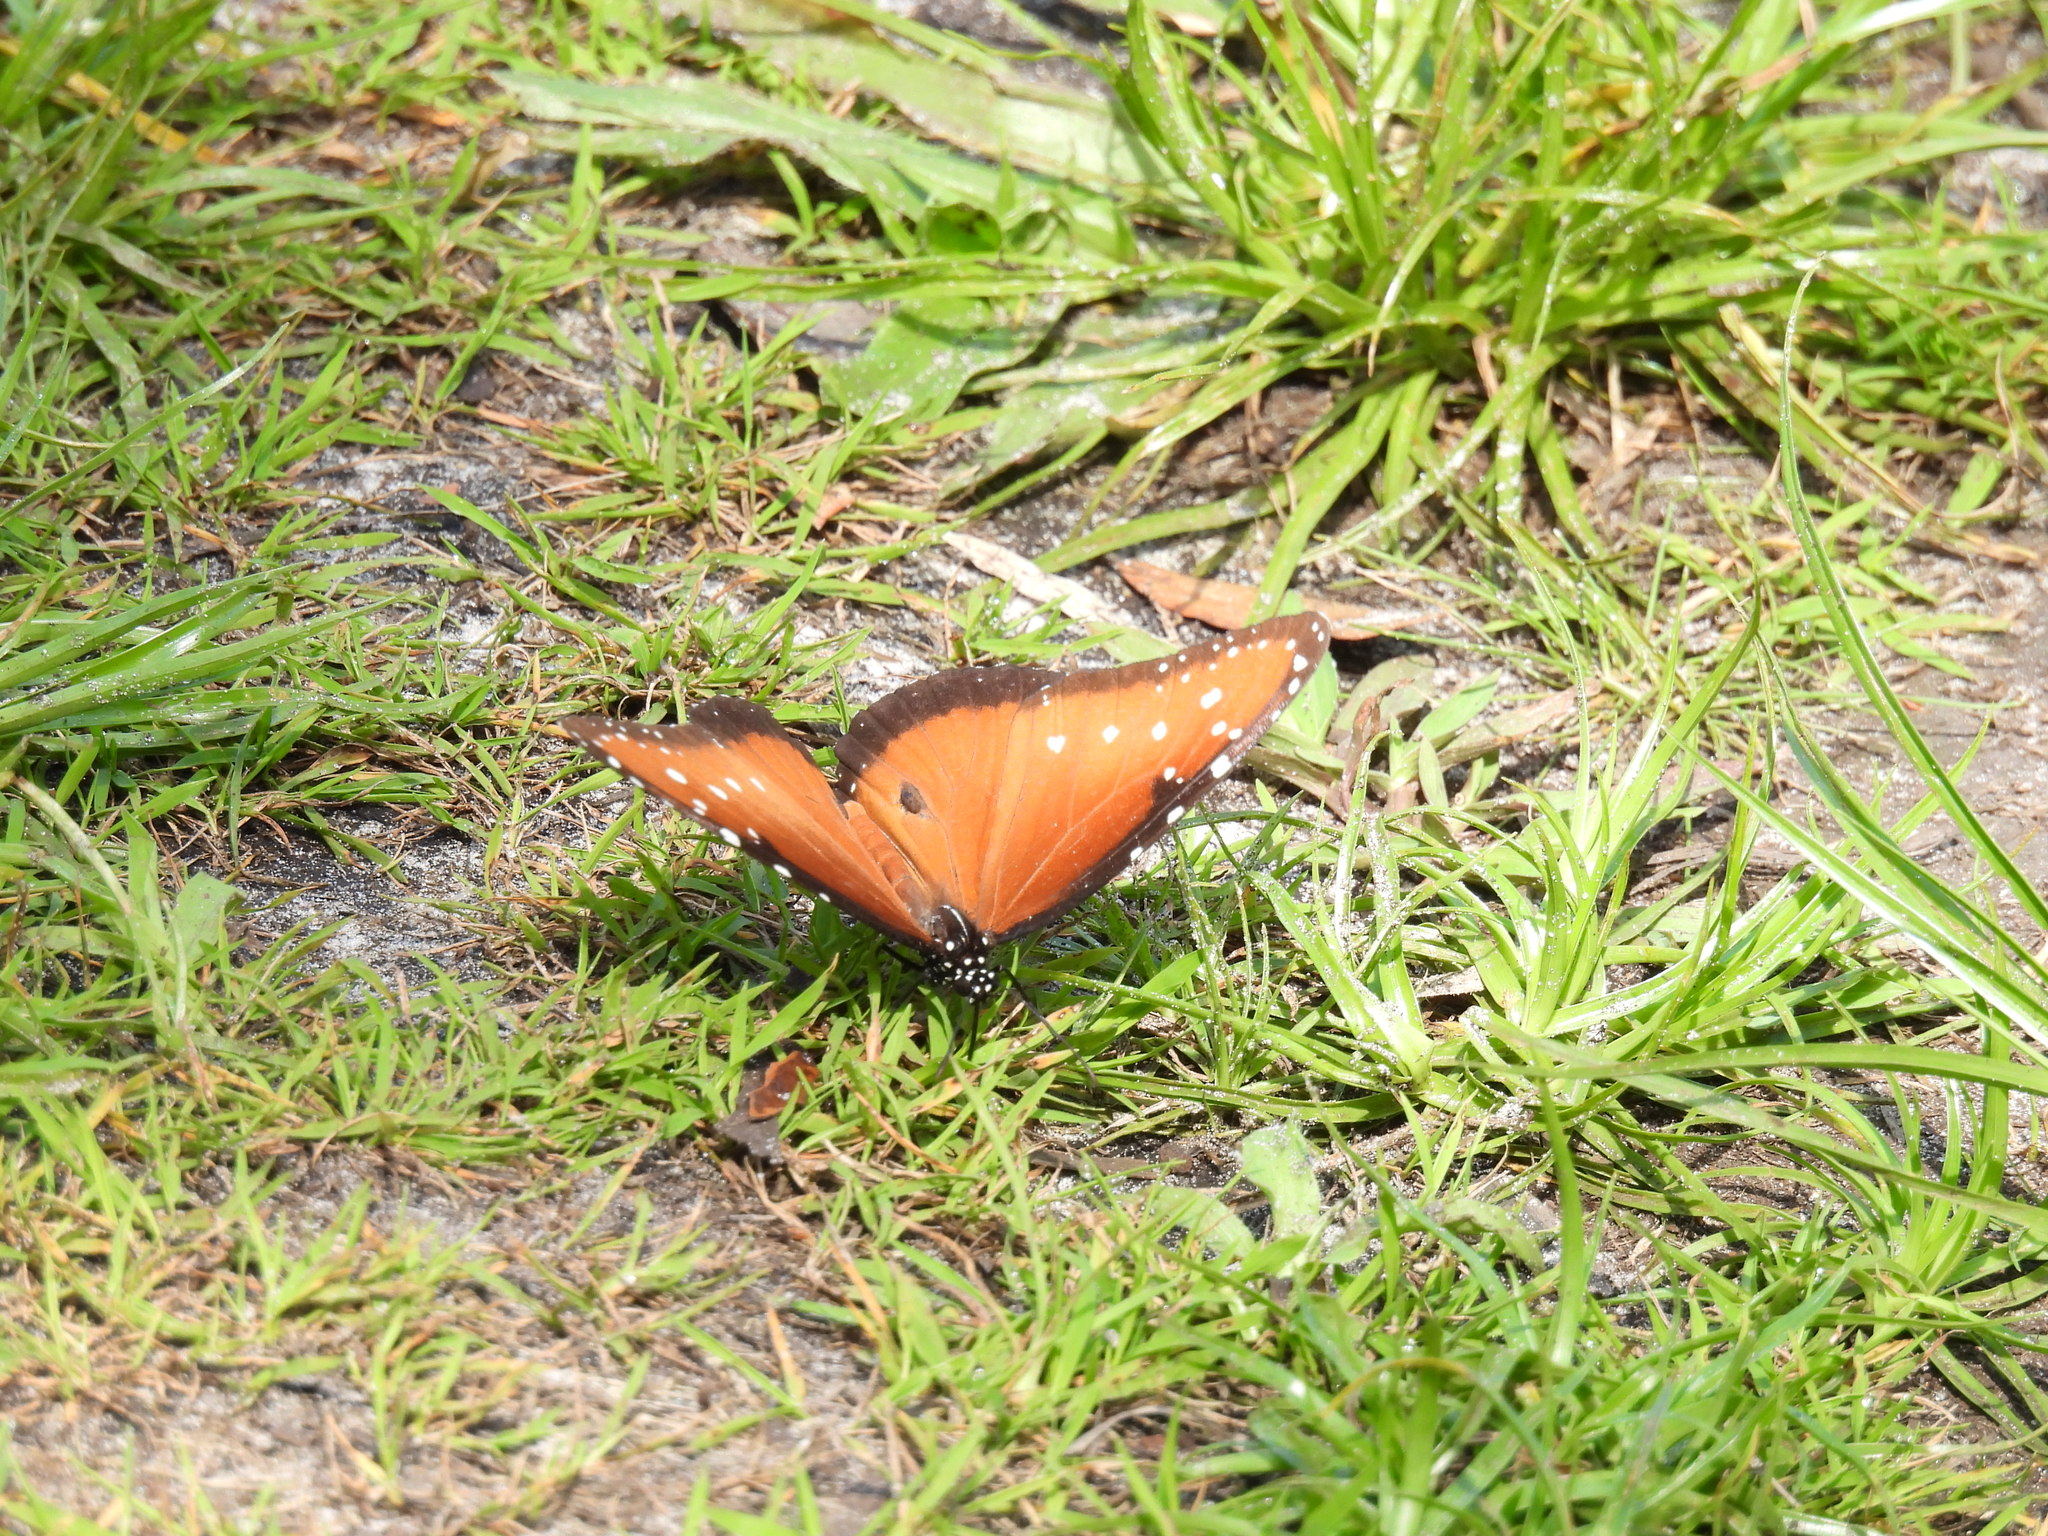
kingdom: Animalia
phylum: Arthropoda
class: Insecta
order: Lepidoptera
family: Nymphalidae
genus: Danaus
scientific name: Danaus gilippus
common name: Queen
